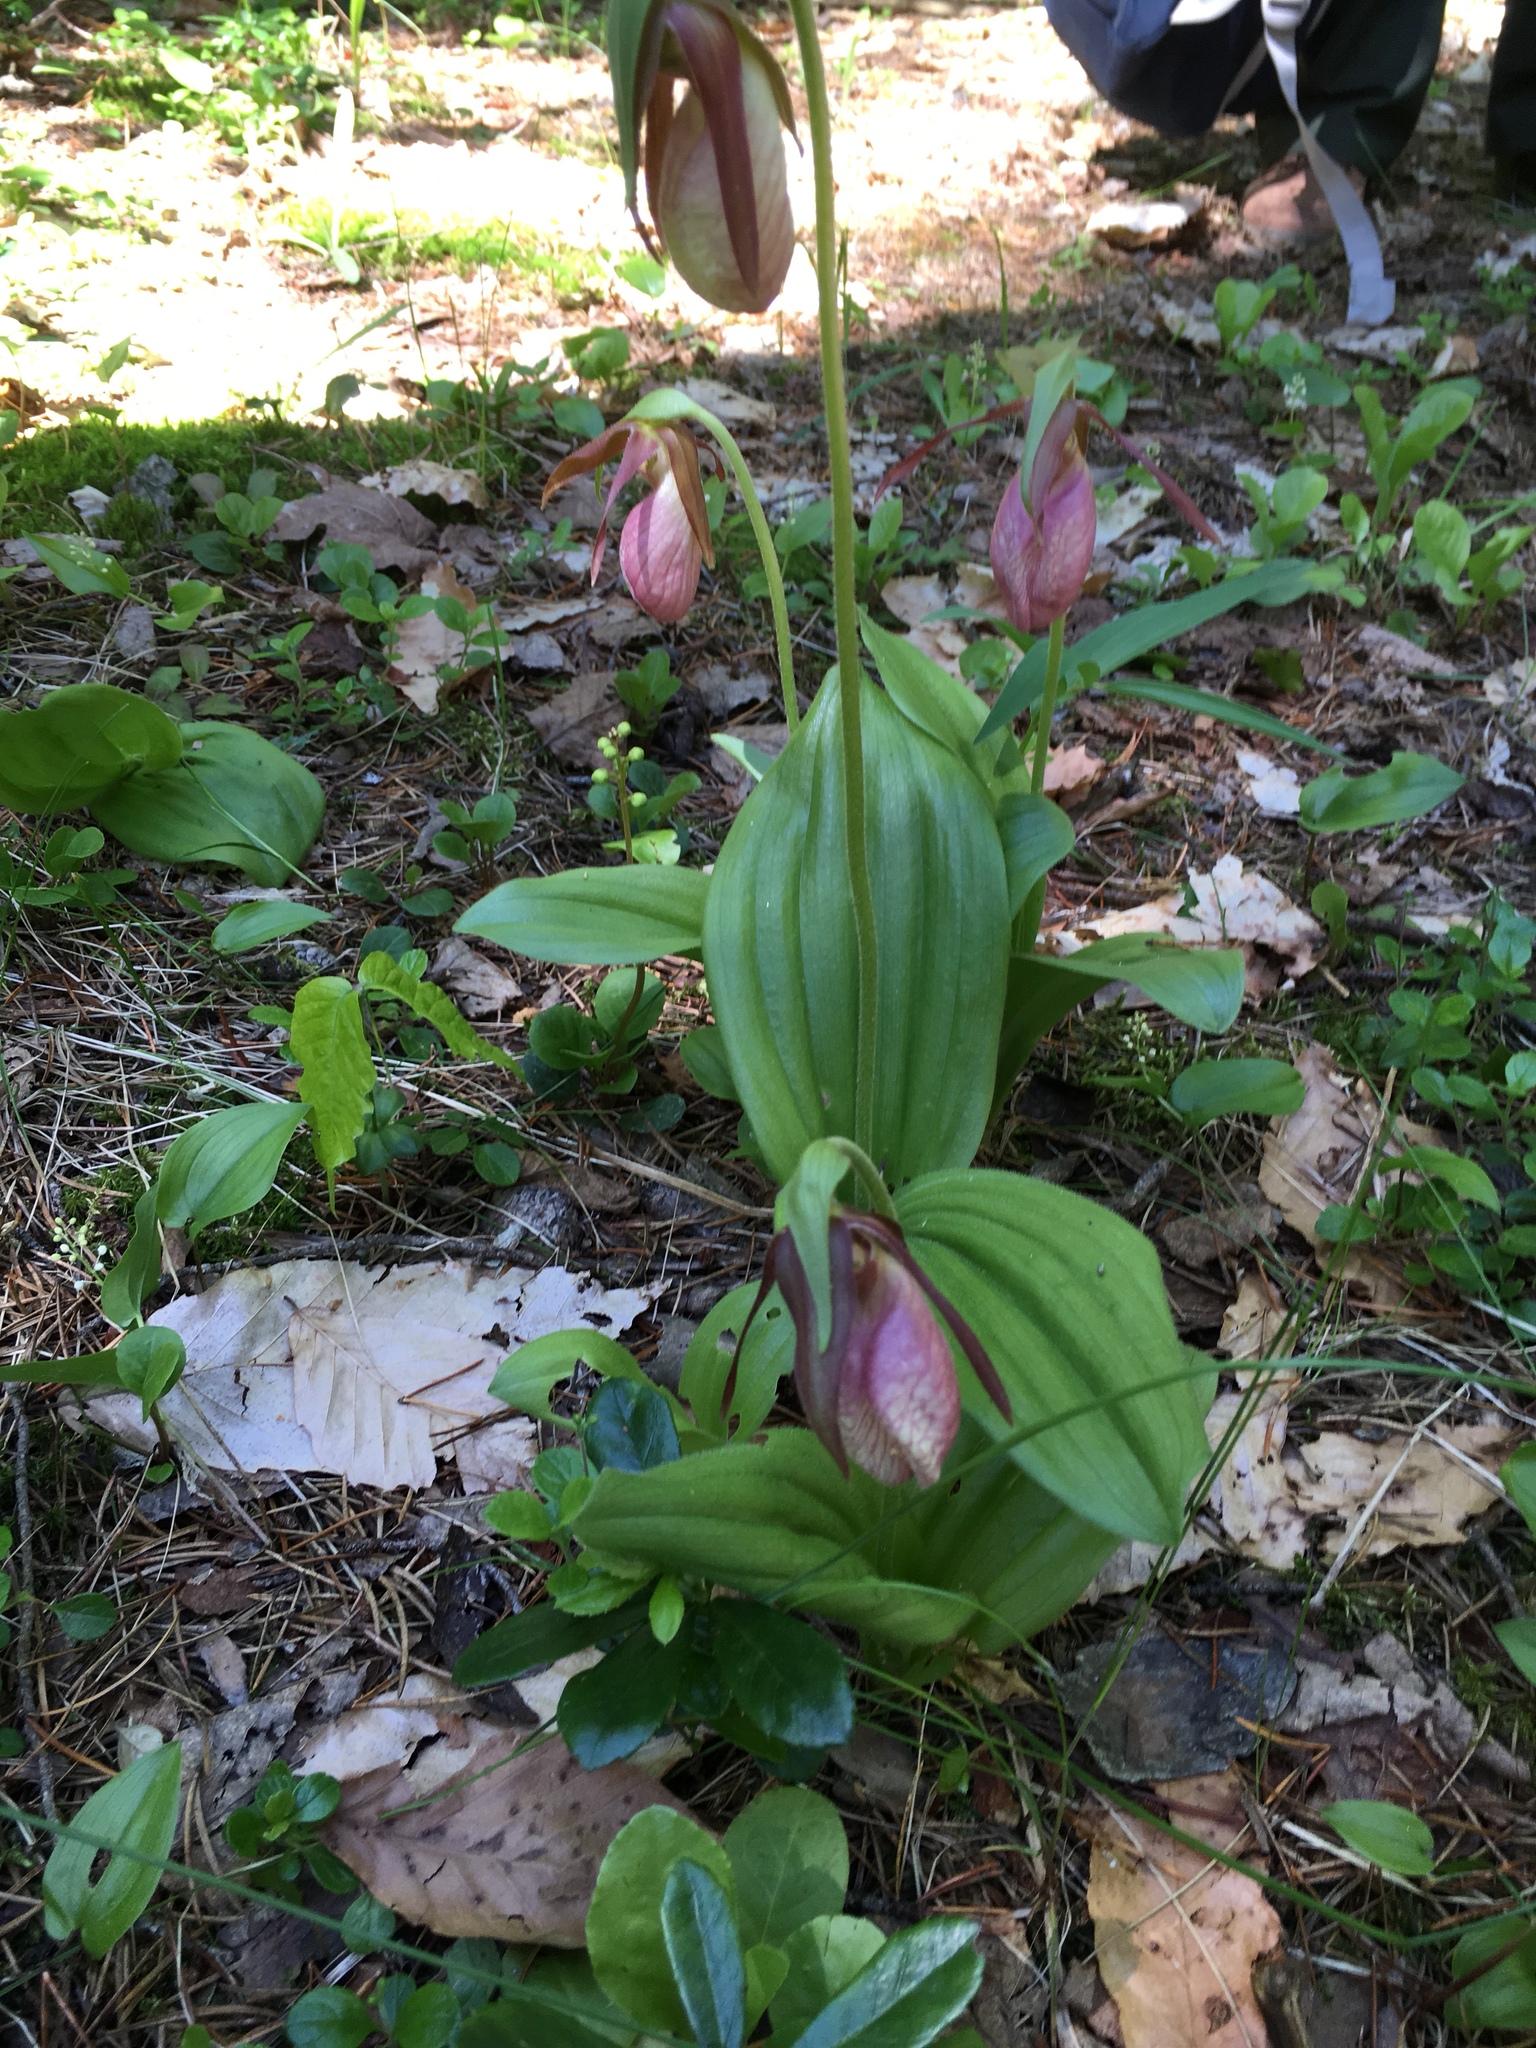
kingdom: Plantae
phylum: Tracheophyta
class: Liliopsida
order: Asparagales
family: Orchidaceae
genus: Cypripedium
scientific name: Cypripedium acaule
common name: Pink lady's-slipper
